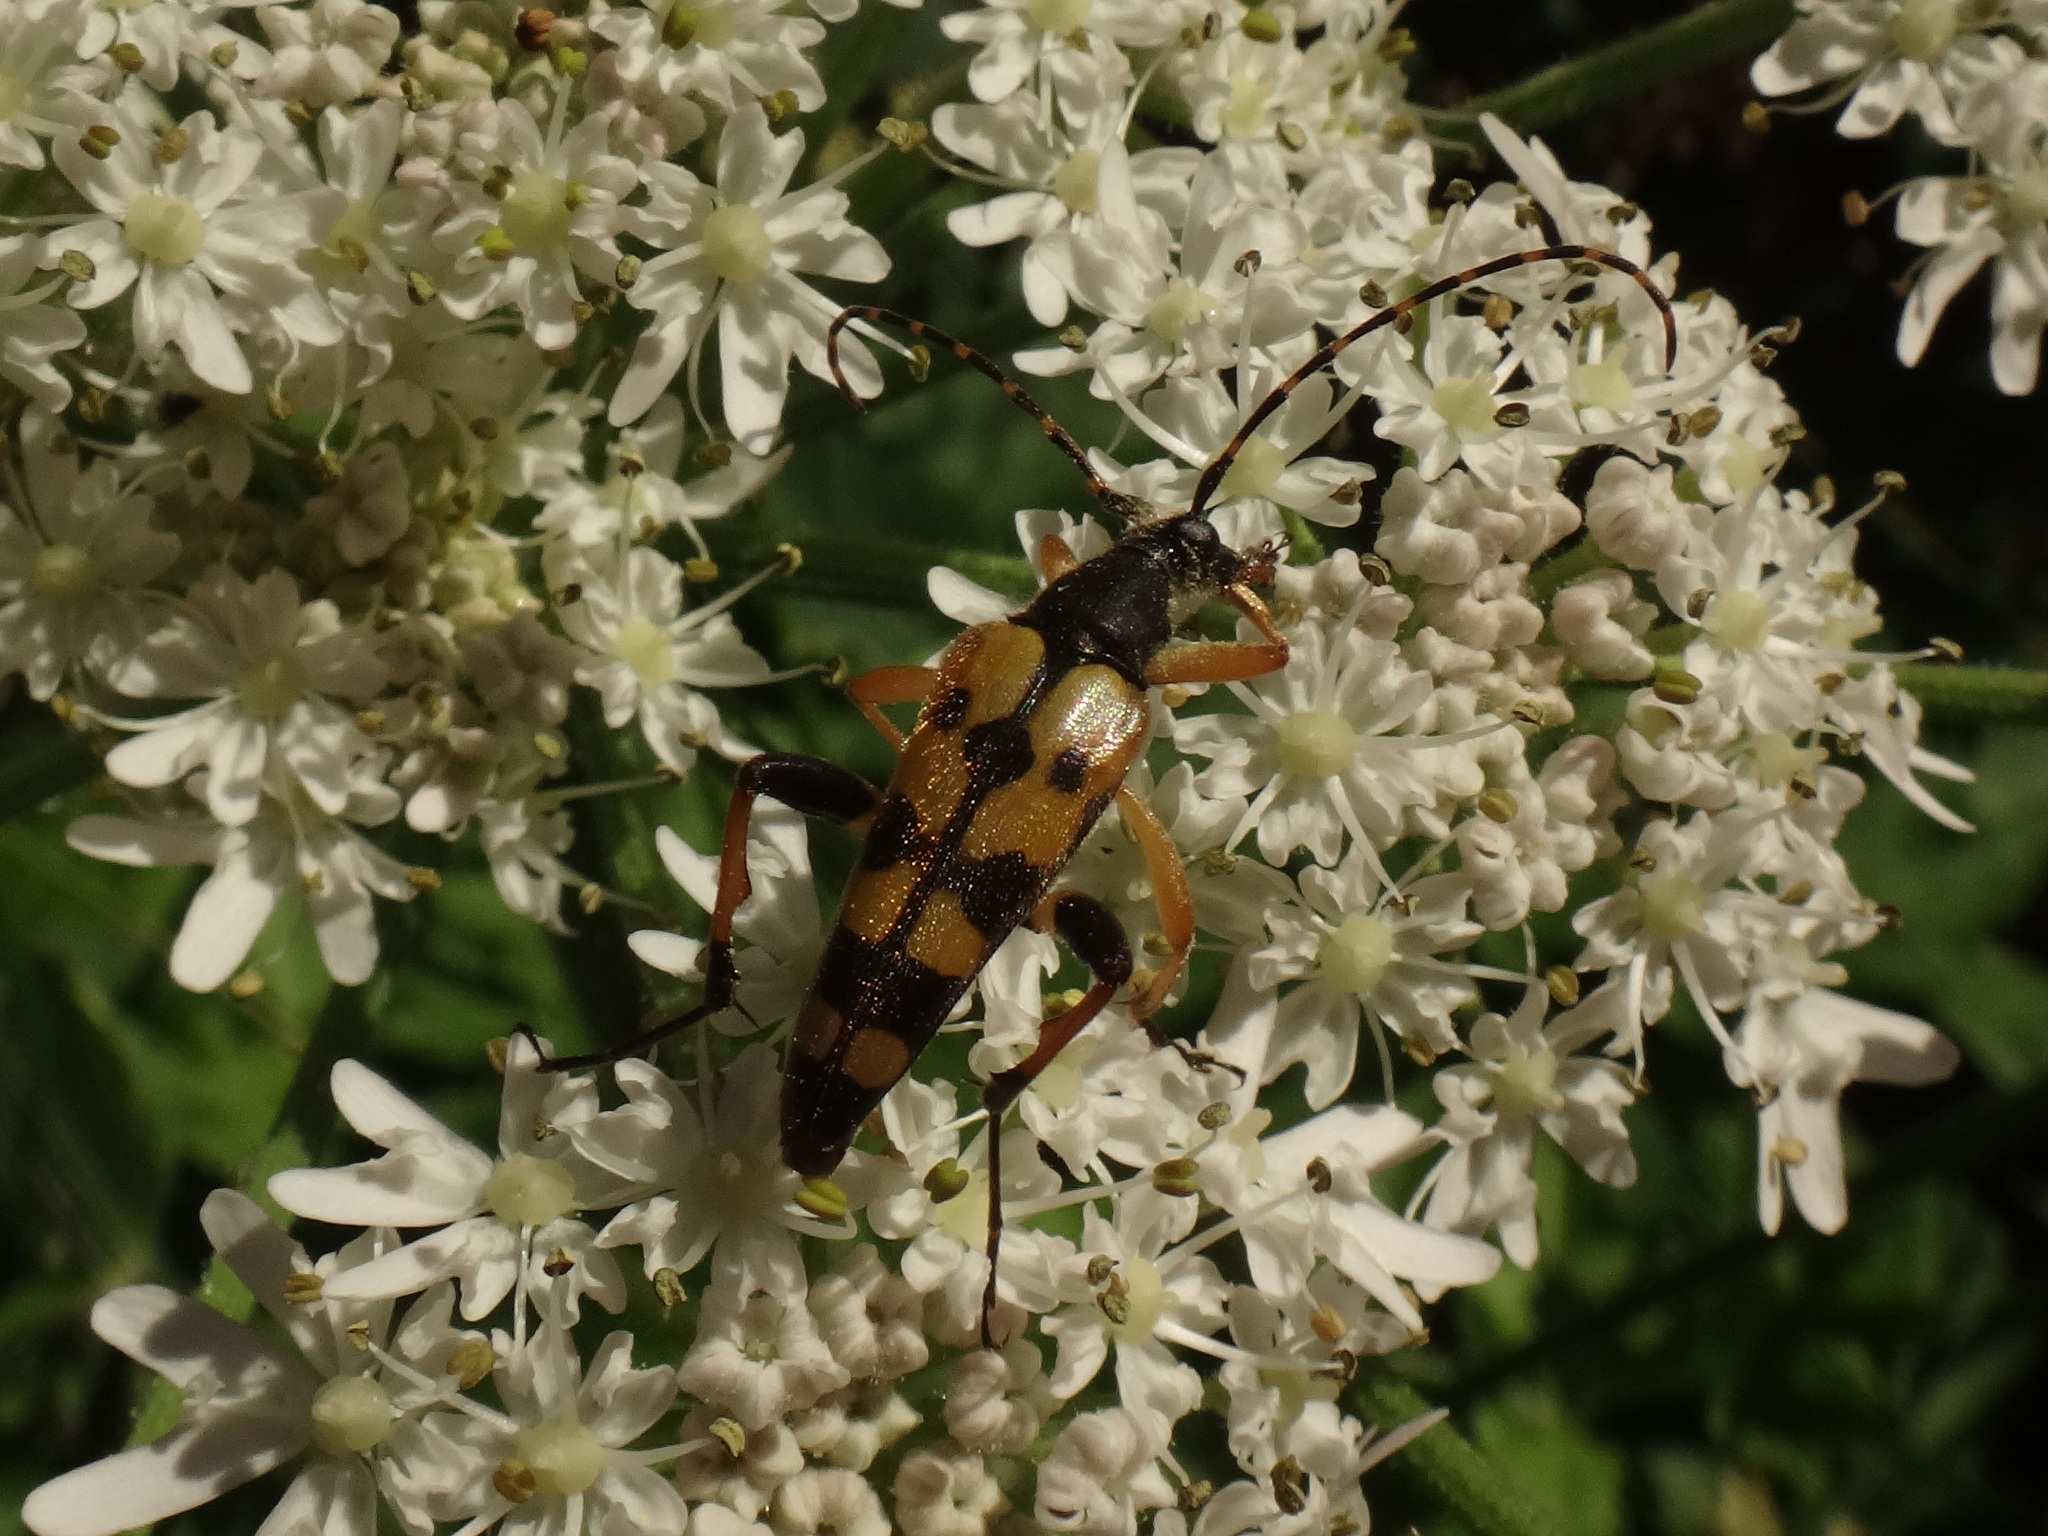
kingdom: Animalia
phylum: Arthropoda
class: Insecta
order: Coleoptera
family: Cerambycidae
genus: Rutpela
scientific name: Rutpela maculata
